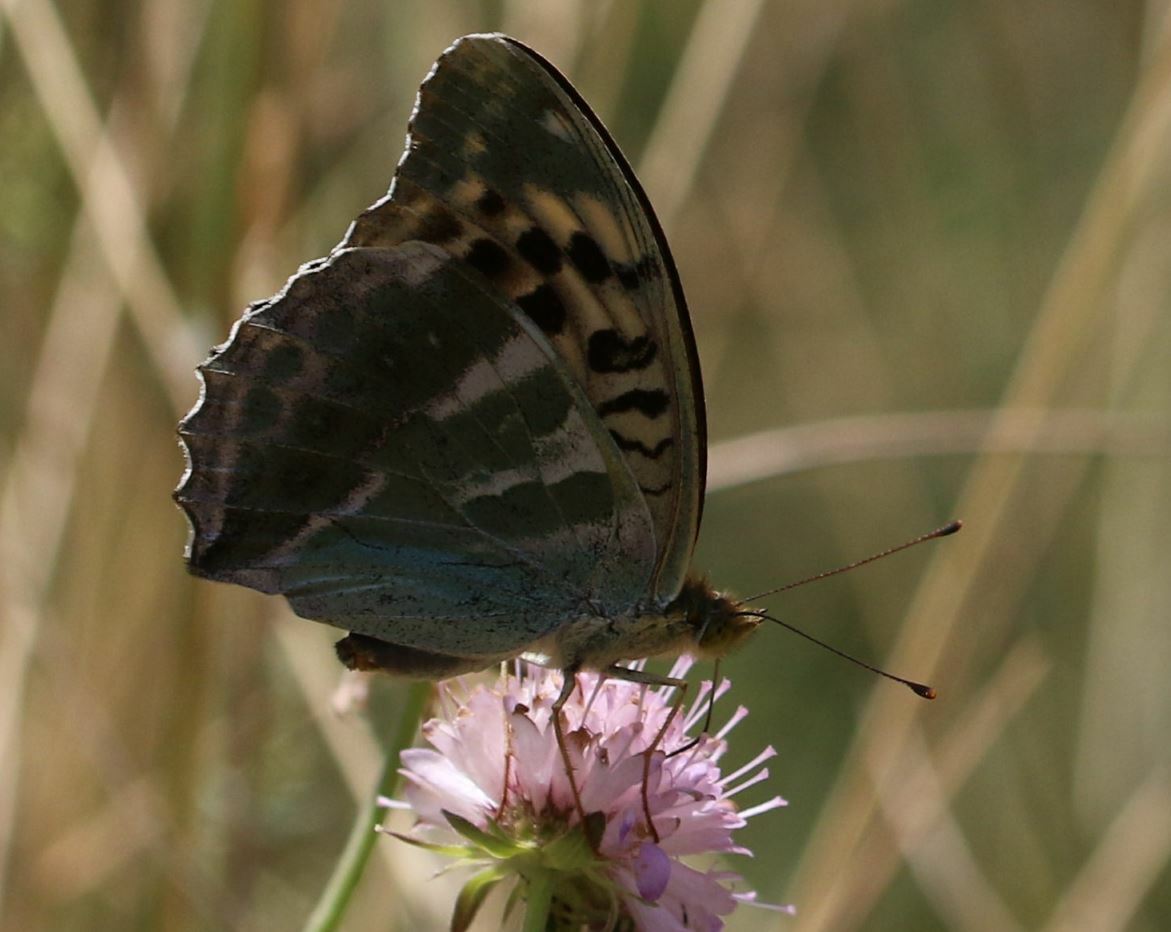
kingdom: Animalia
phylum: Arthropoda
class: Insecta
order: Lepidoptera
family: Nymphalidae
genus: Argynnis
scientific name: Argynnis paphia
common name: Silver-washed fritillary
